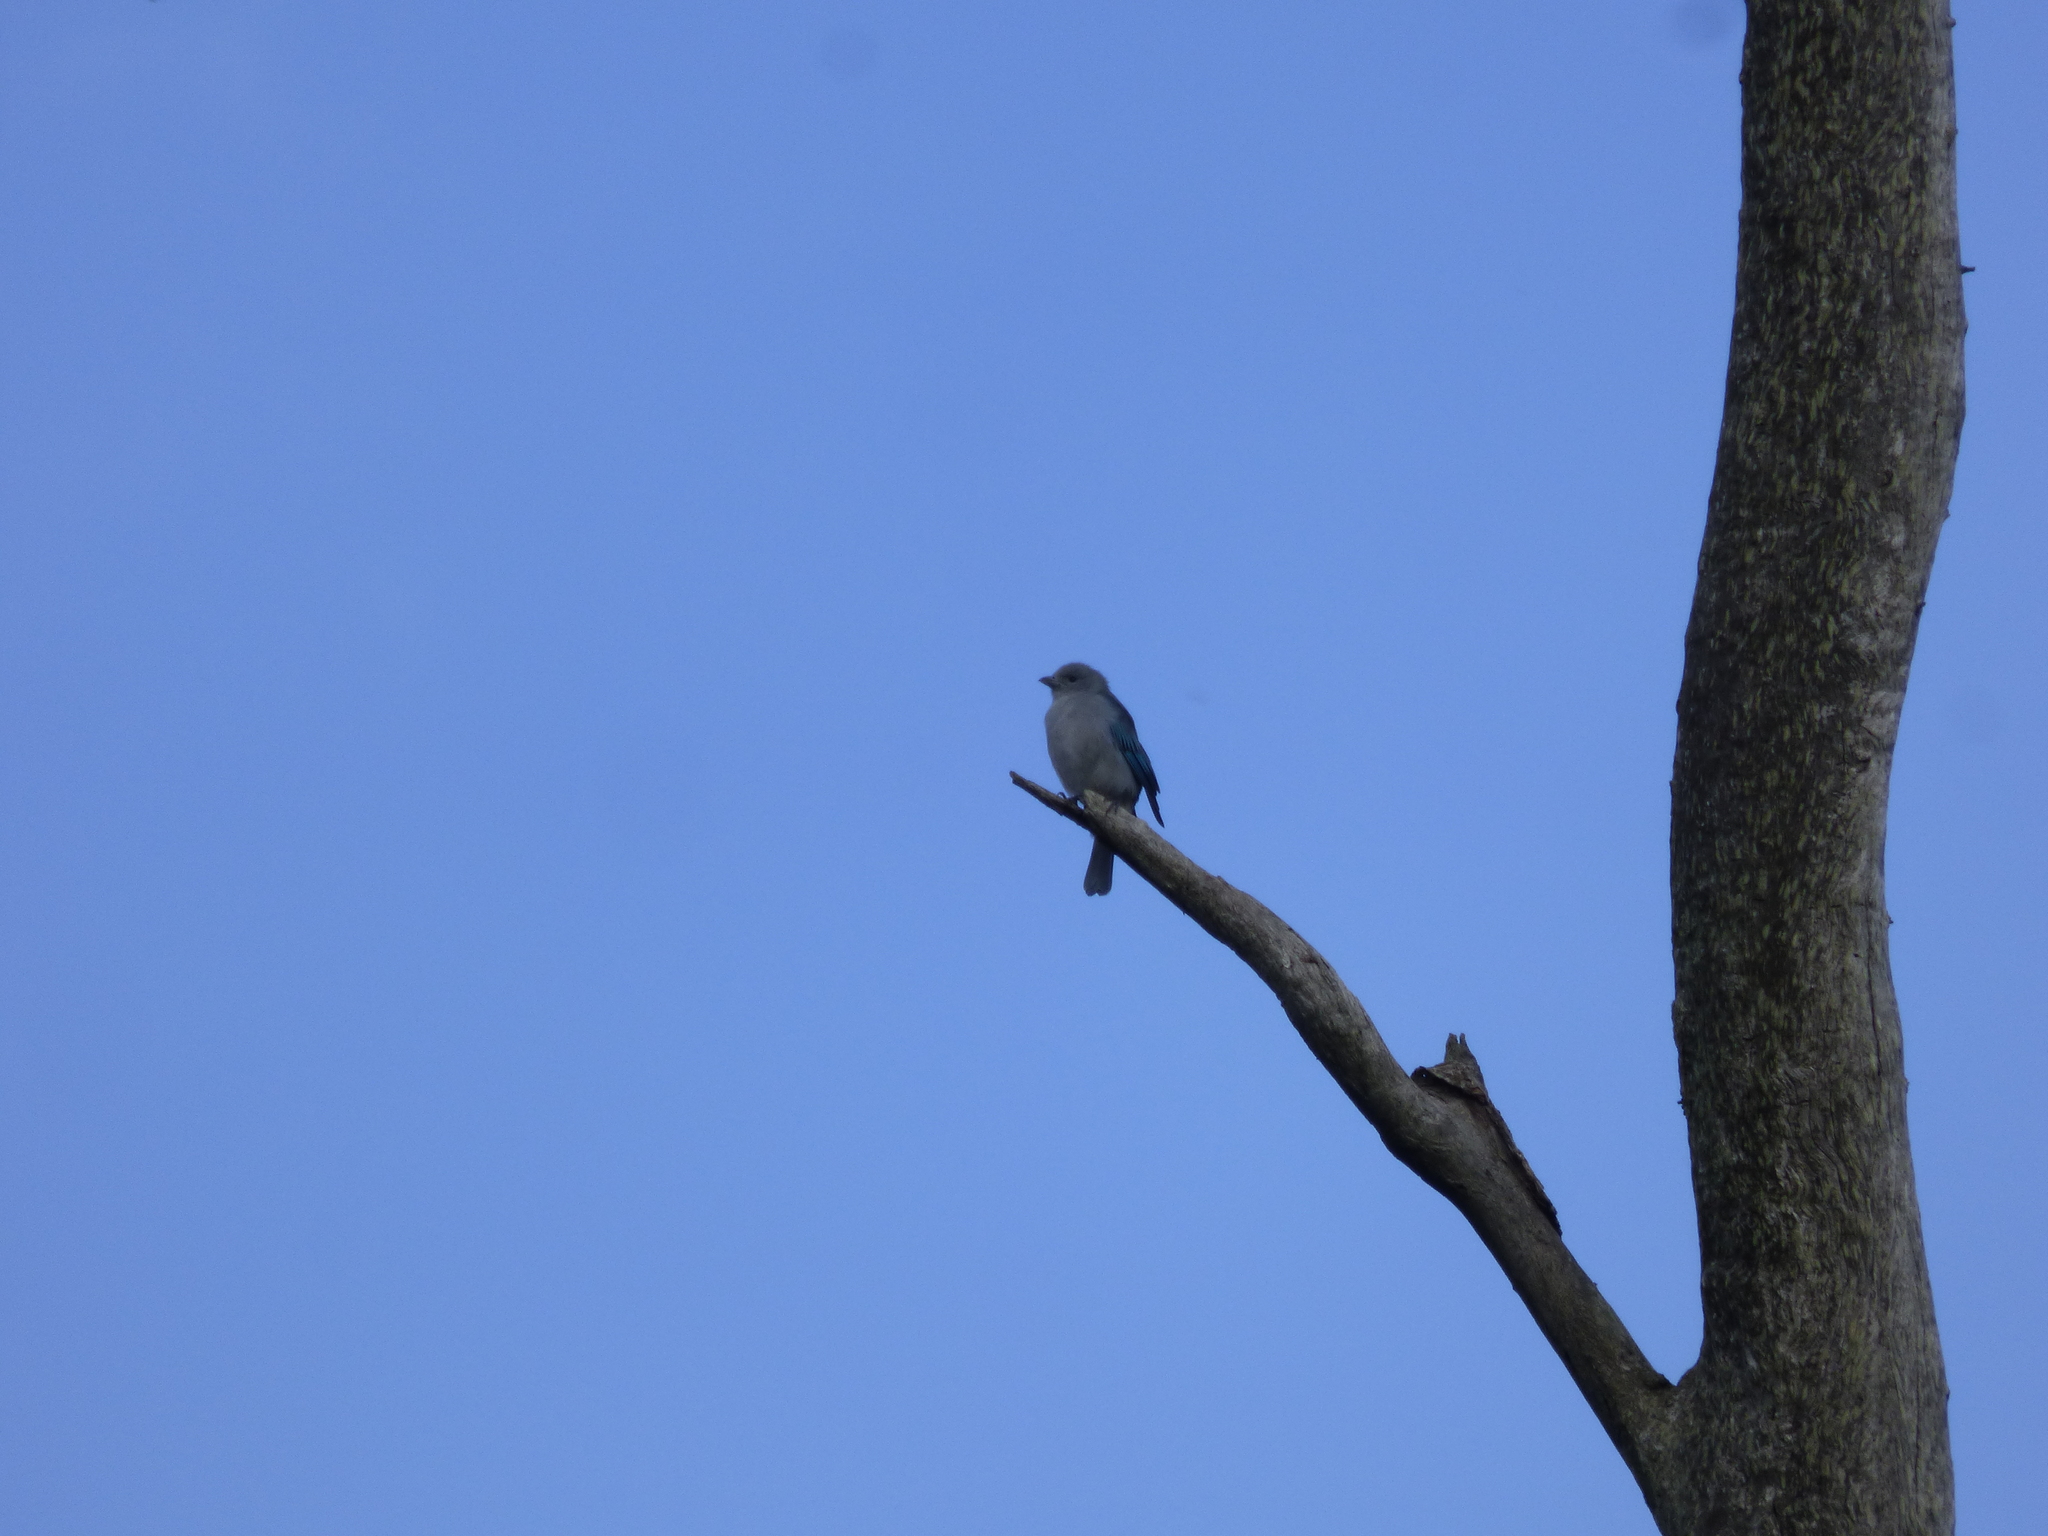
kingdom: Animalia
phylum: Chordata
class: Aves
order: Passeriformes
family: Thraupidae
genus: Thraupis
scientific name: Thraupis sayaca
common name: Sayaca tanager
